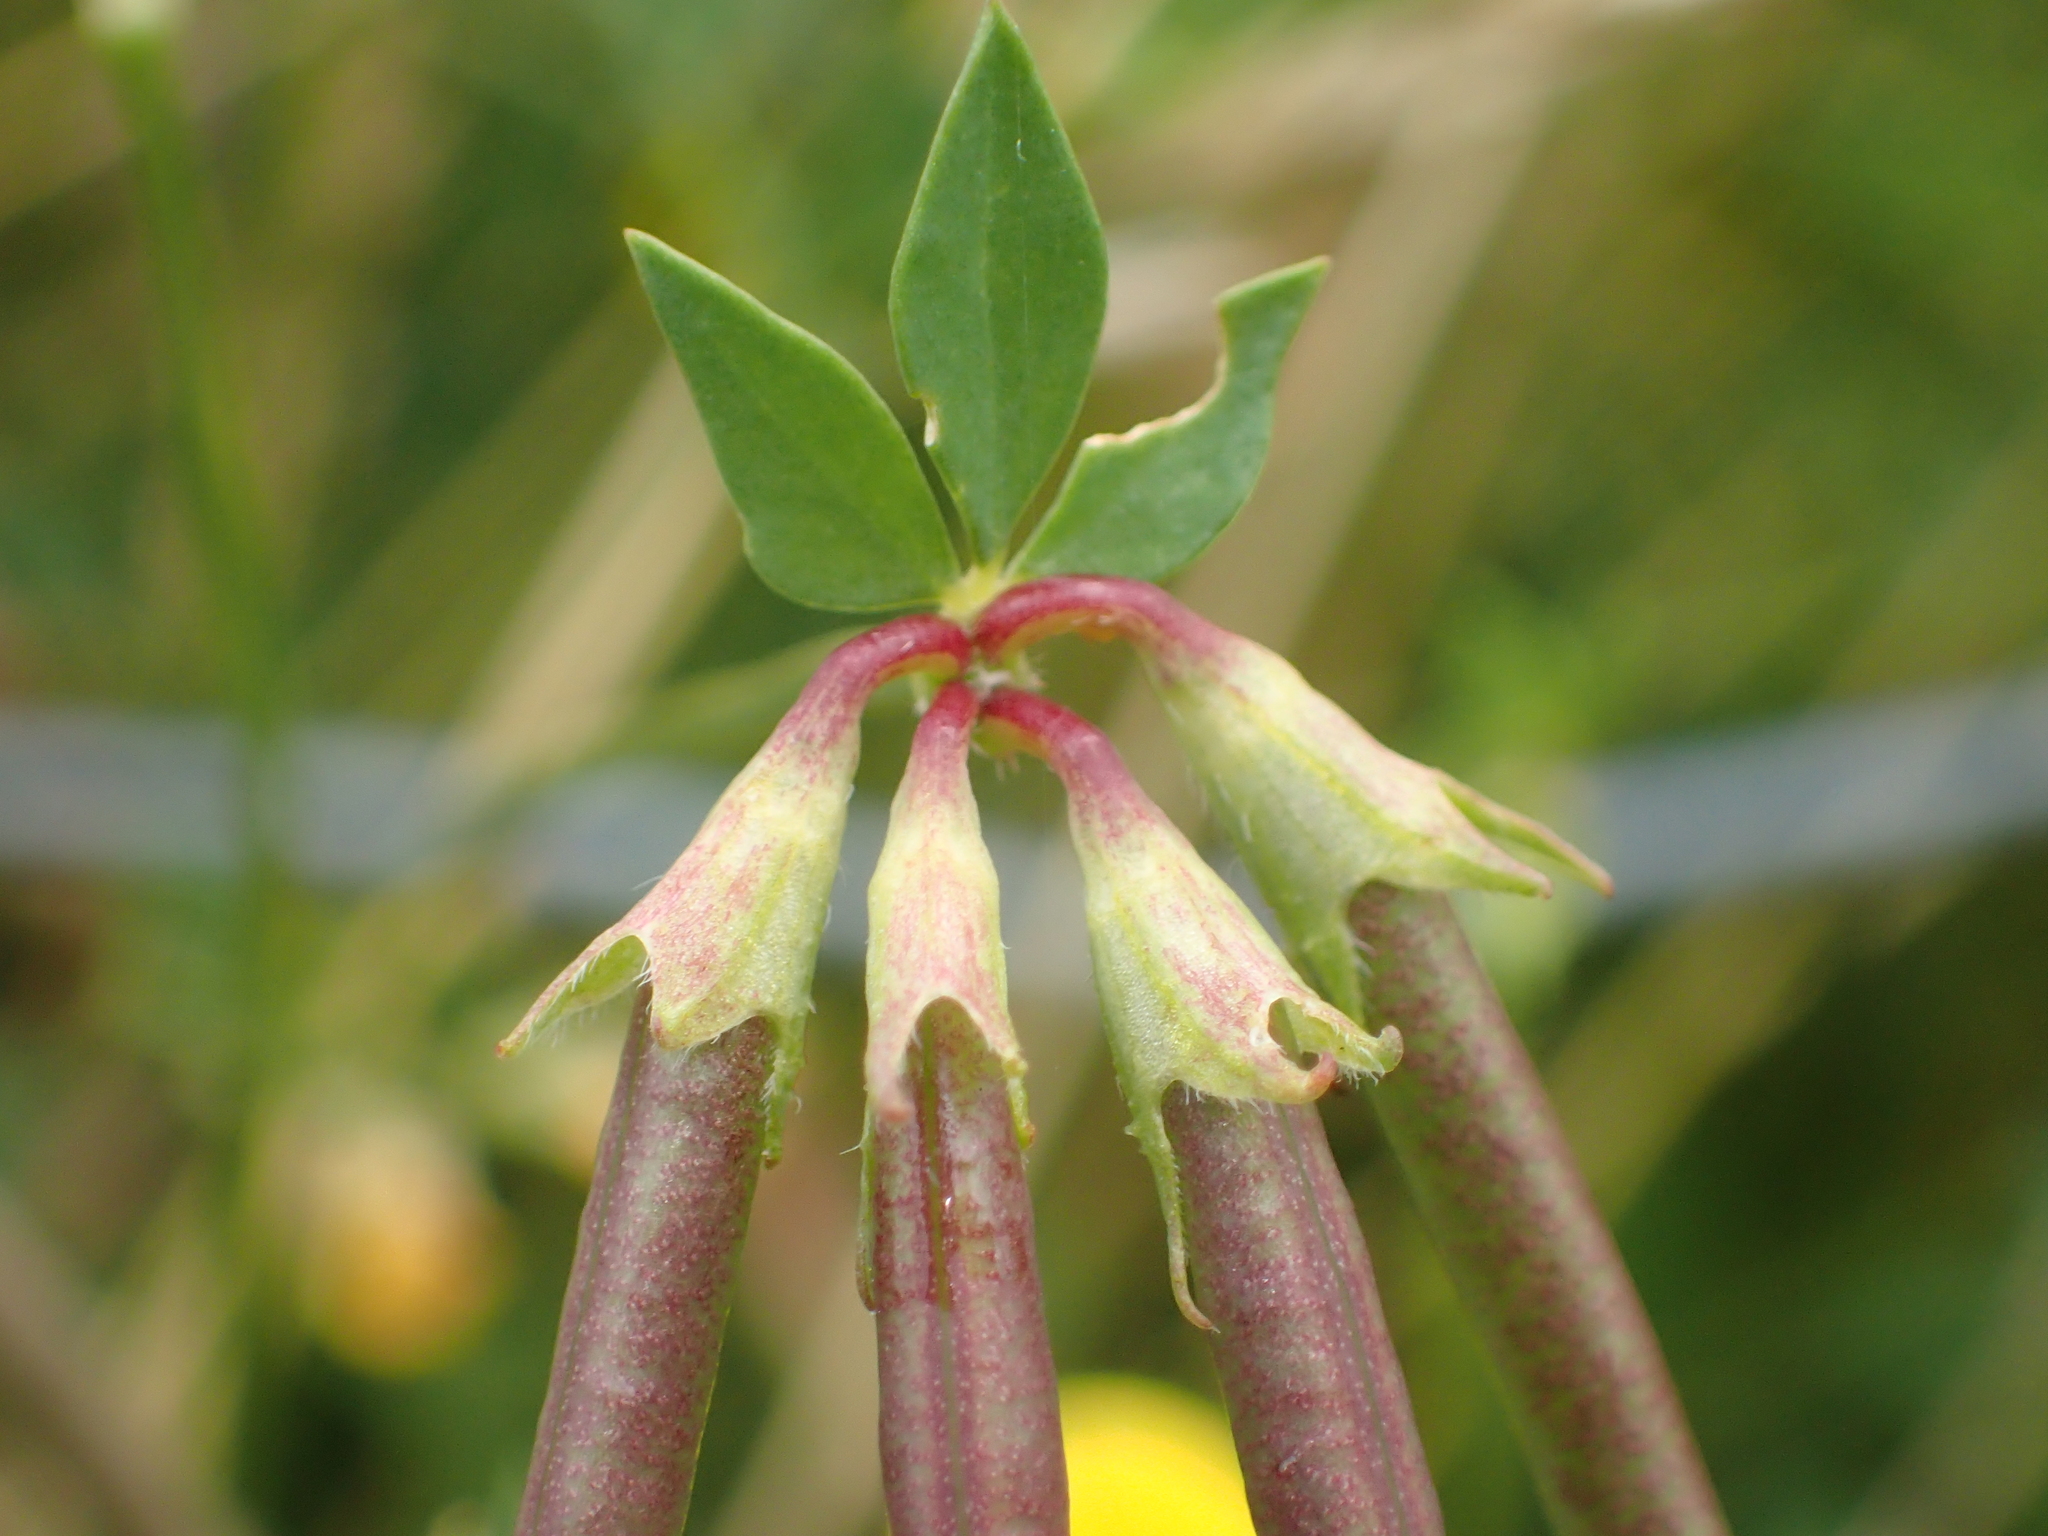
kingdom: Plantae
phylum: Tracheophyta
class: Magnoliopsida
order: Fabales
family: Fabaceae
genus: Lotus
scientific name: Lotus corniculatus
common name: Common bird's-foot-trefoil
